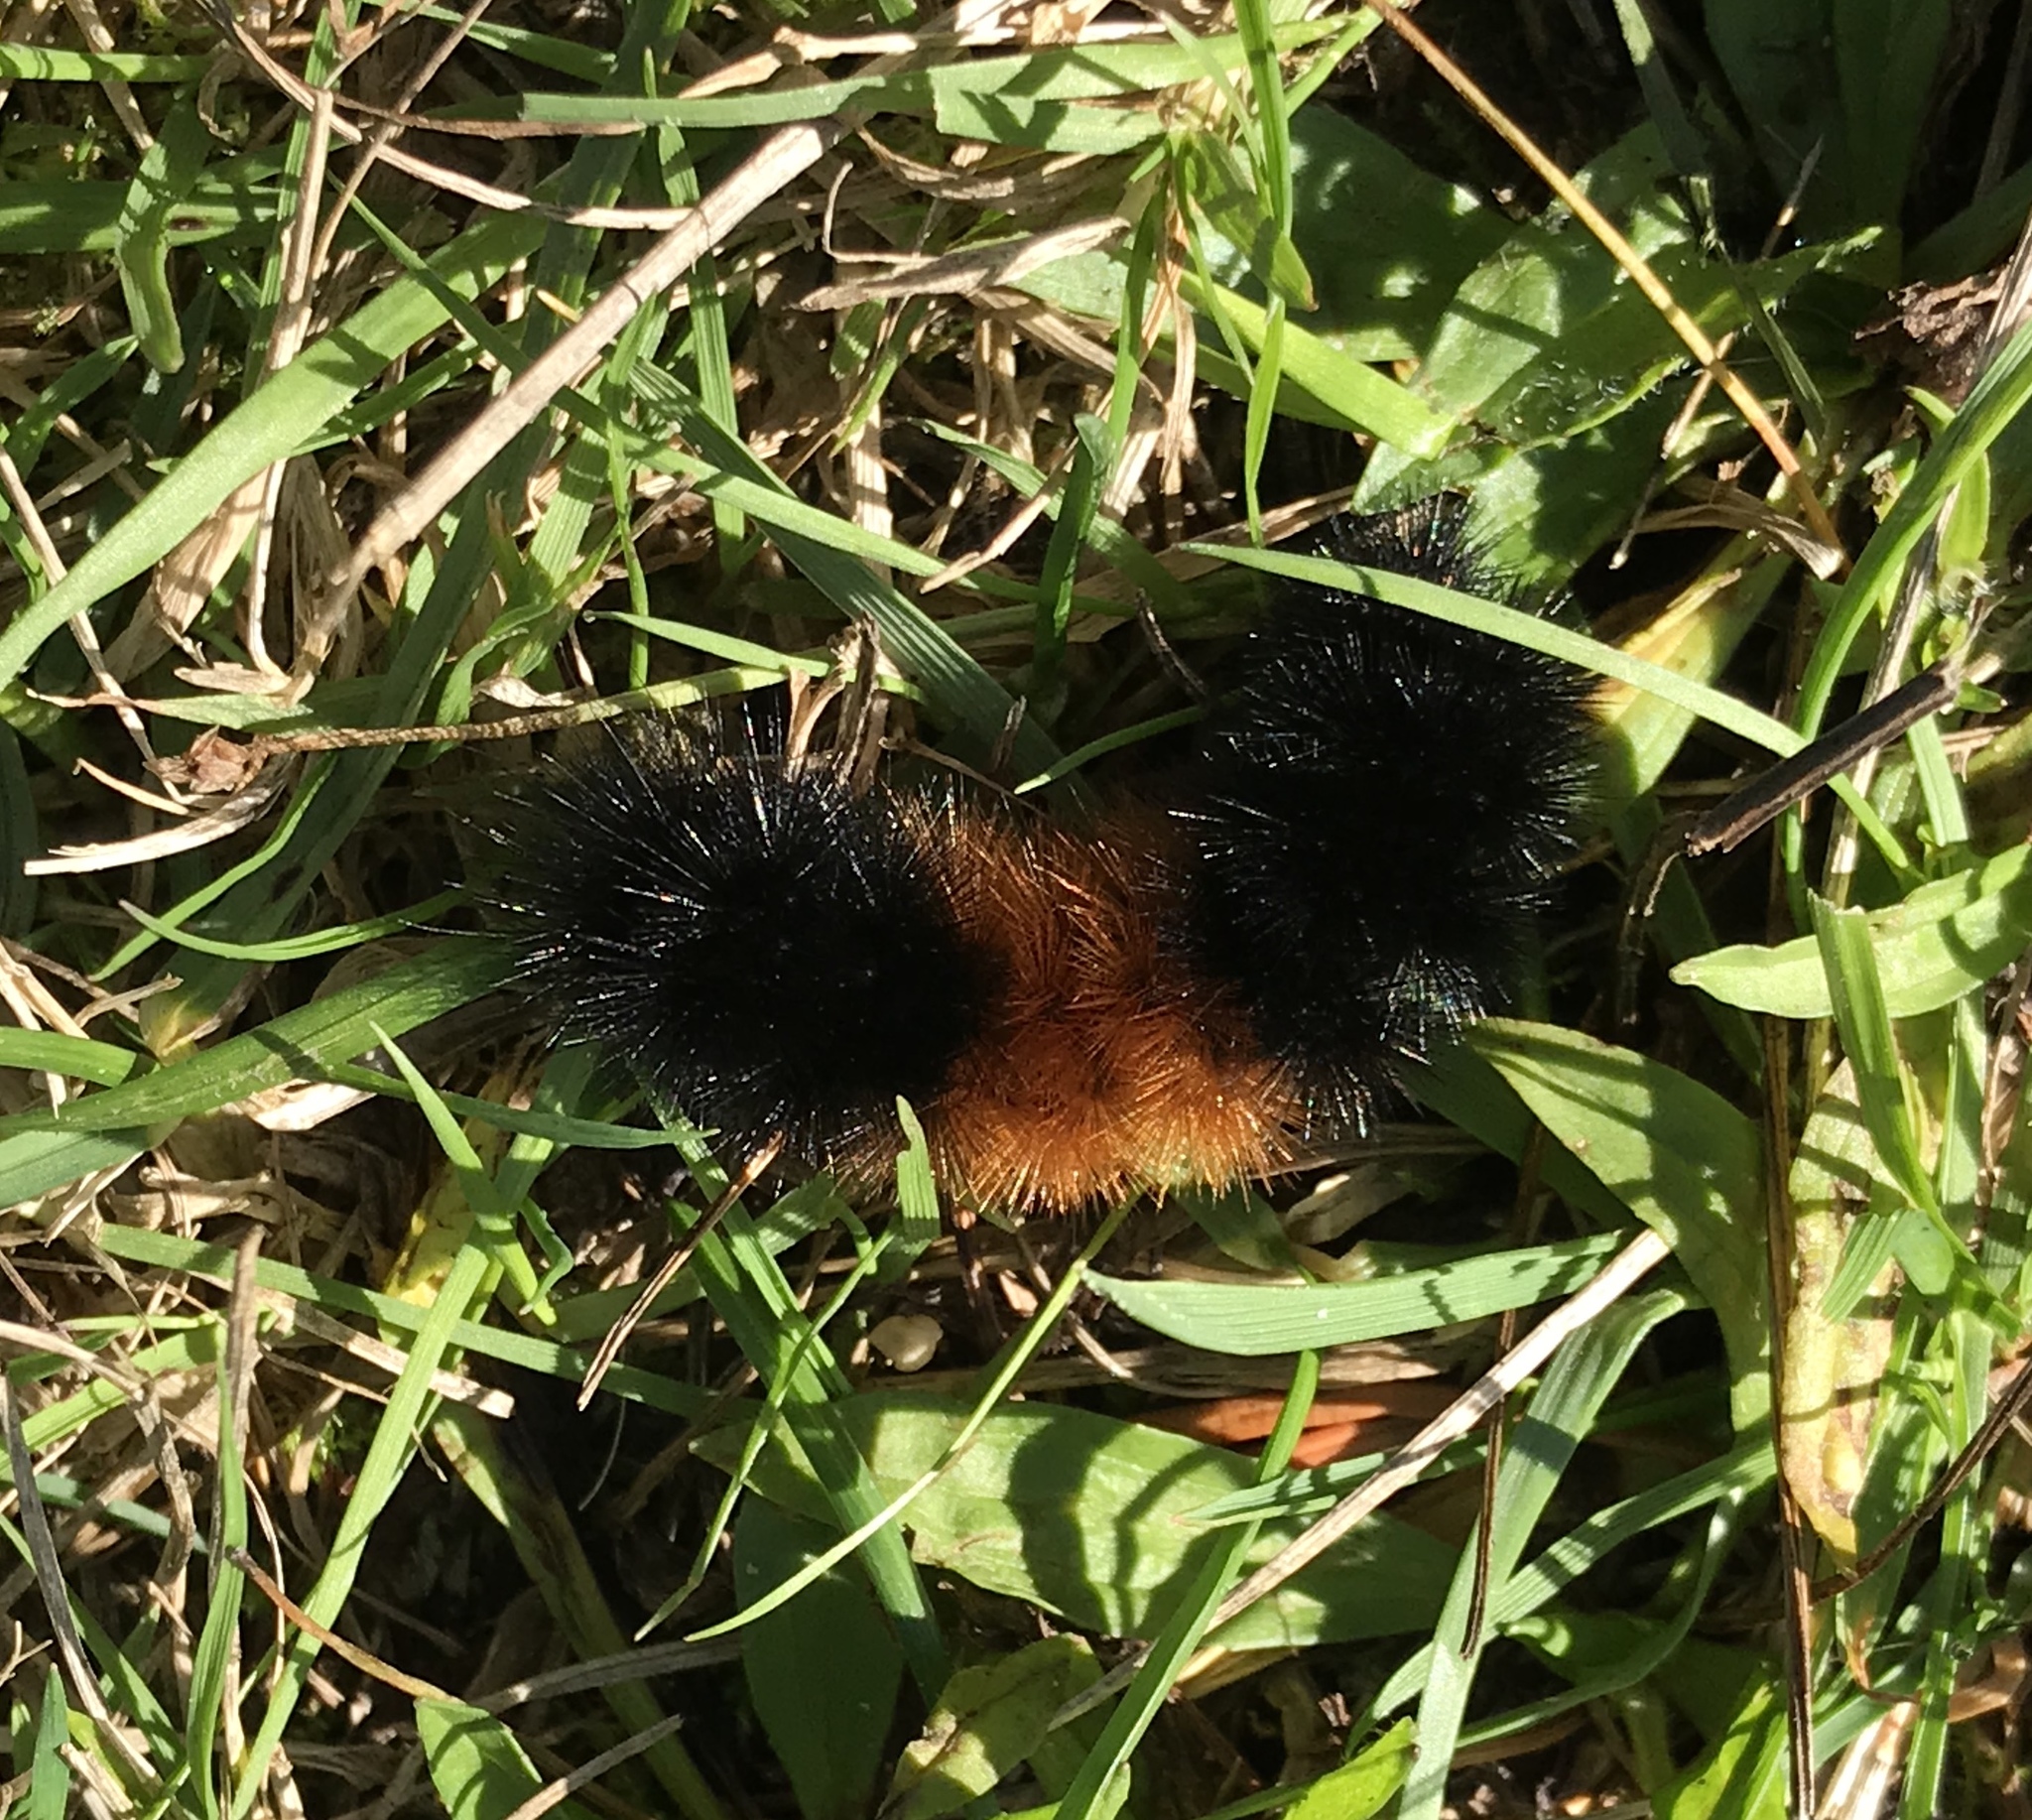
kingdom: Animalia
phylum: Arthropoda
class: Insecta
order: Lepidoptera
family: Erebidae
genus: Pyrrharctia
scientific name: Pyrrharctia isabella
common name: Isabella tiger moth
